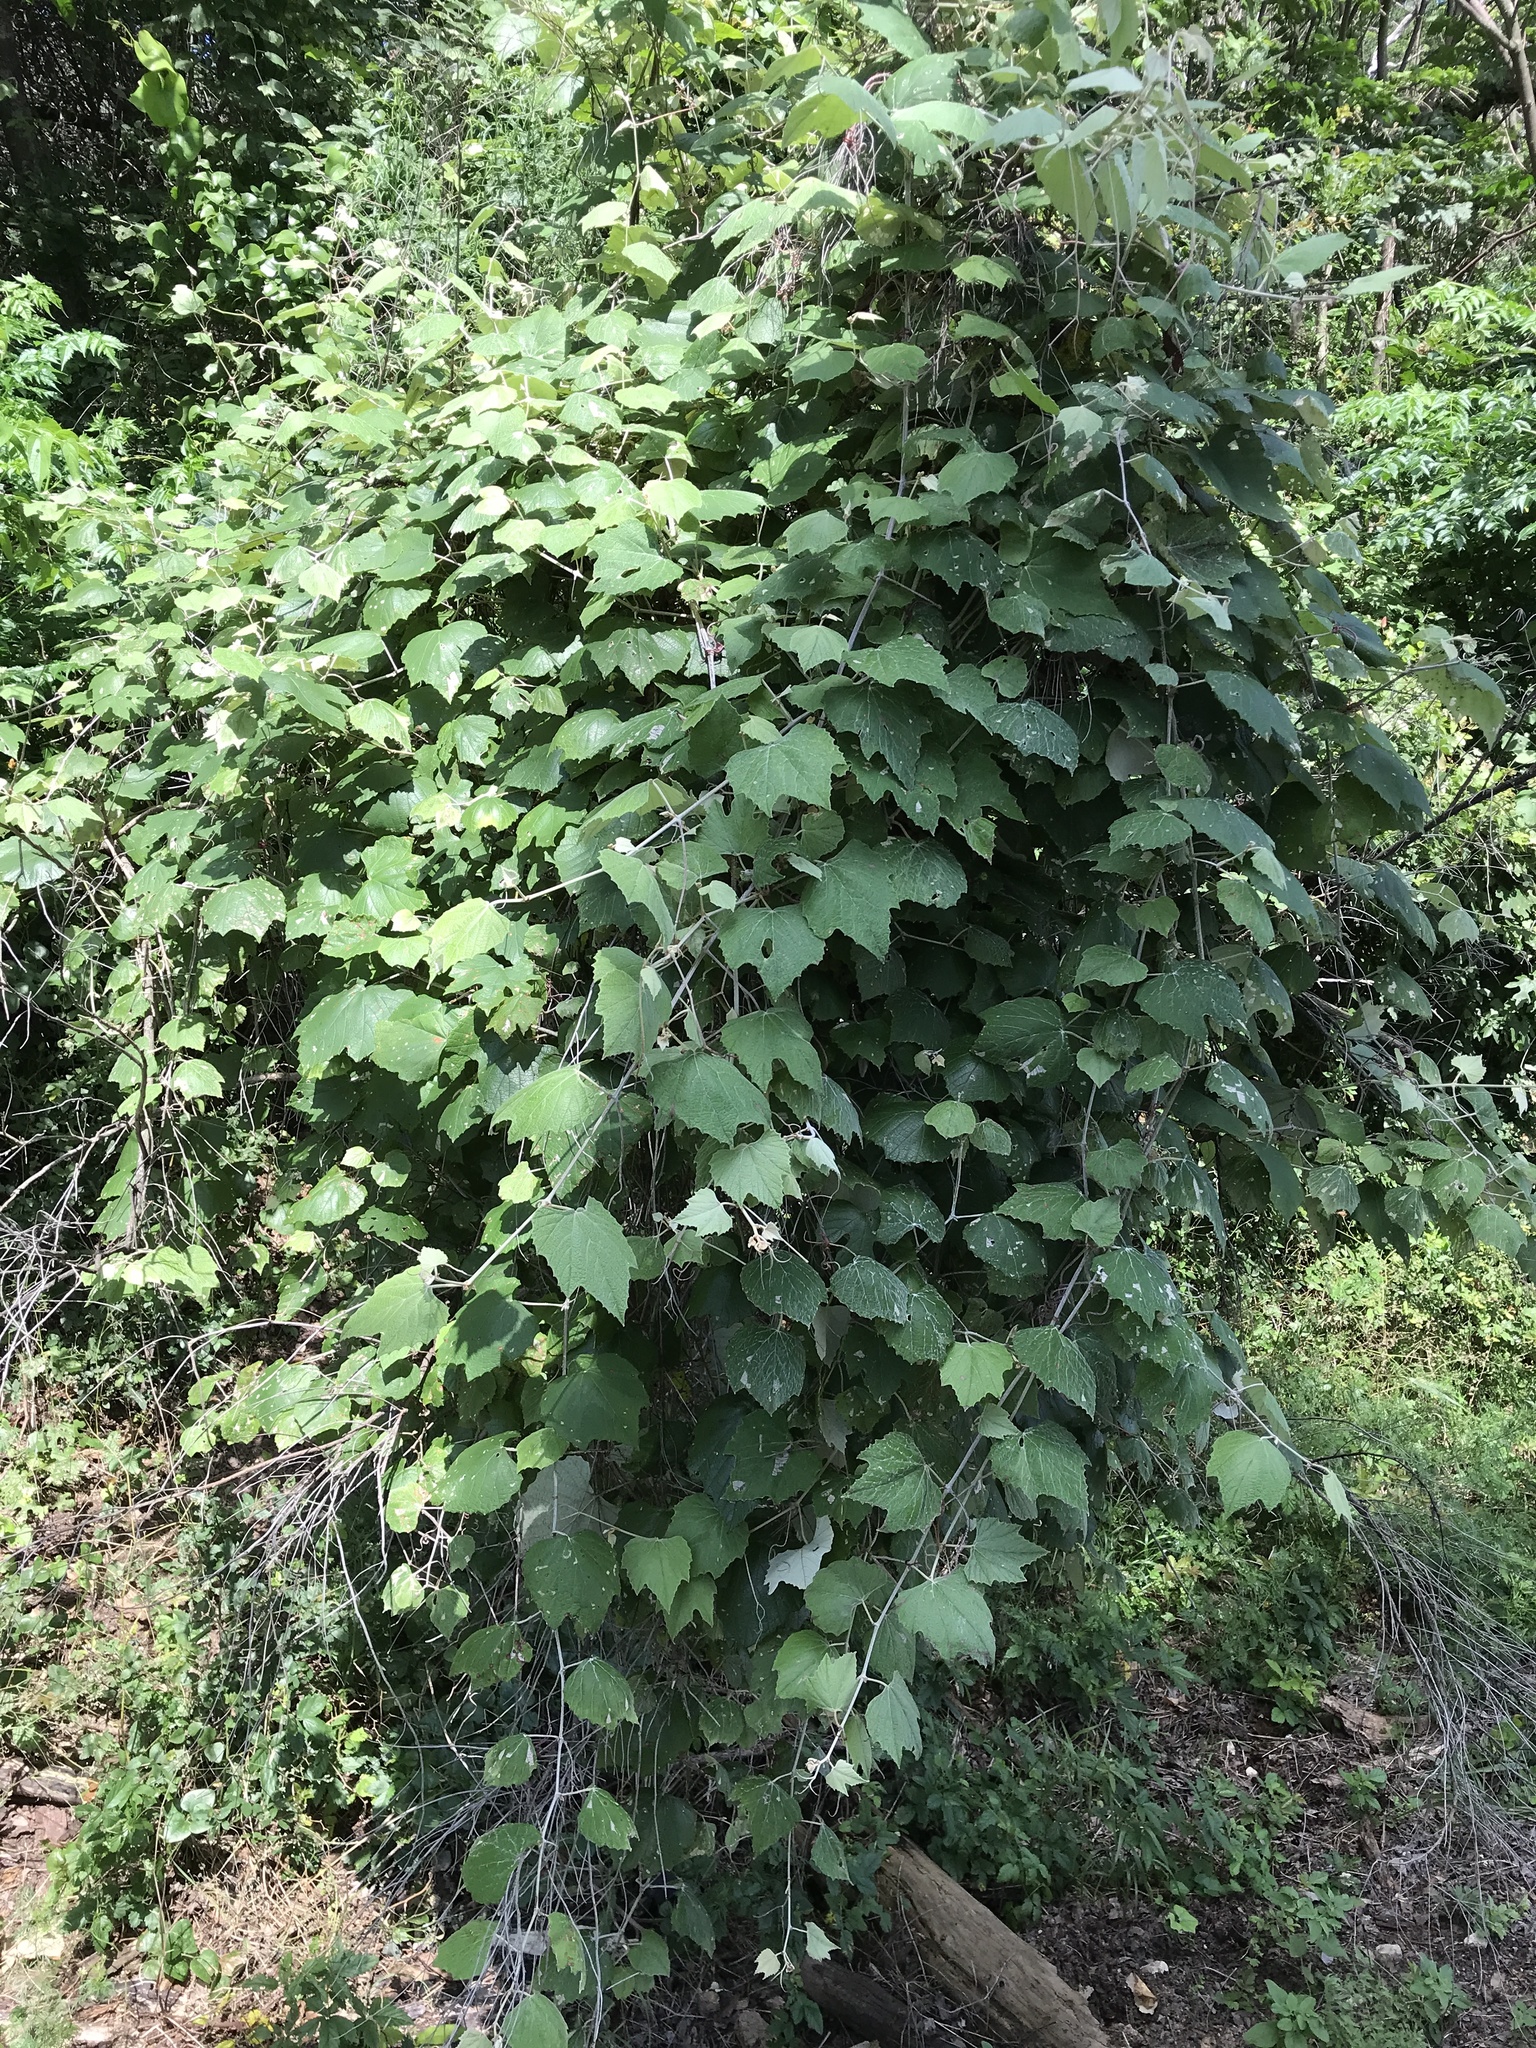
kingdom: Plantae
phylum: Tracheophyta
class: Magnoliopsida
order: Vitales
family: Vitaceae
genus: Vitis
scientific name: Vitis mustangensis
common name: Mustang grape
